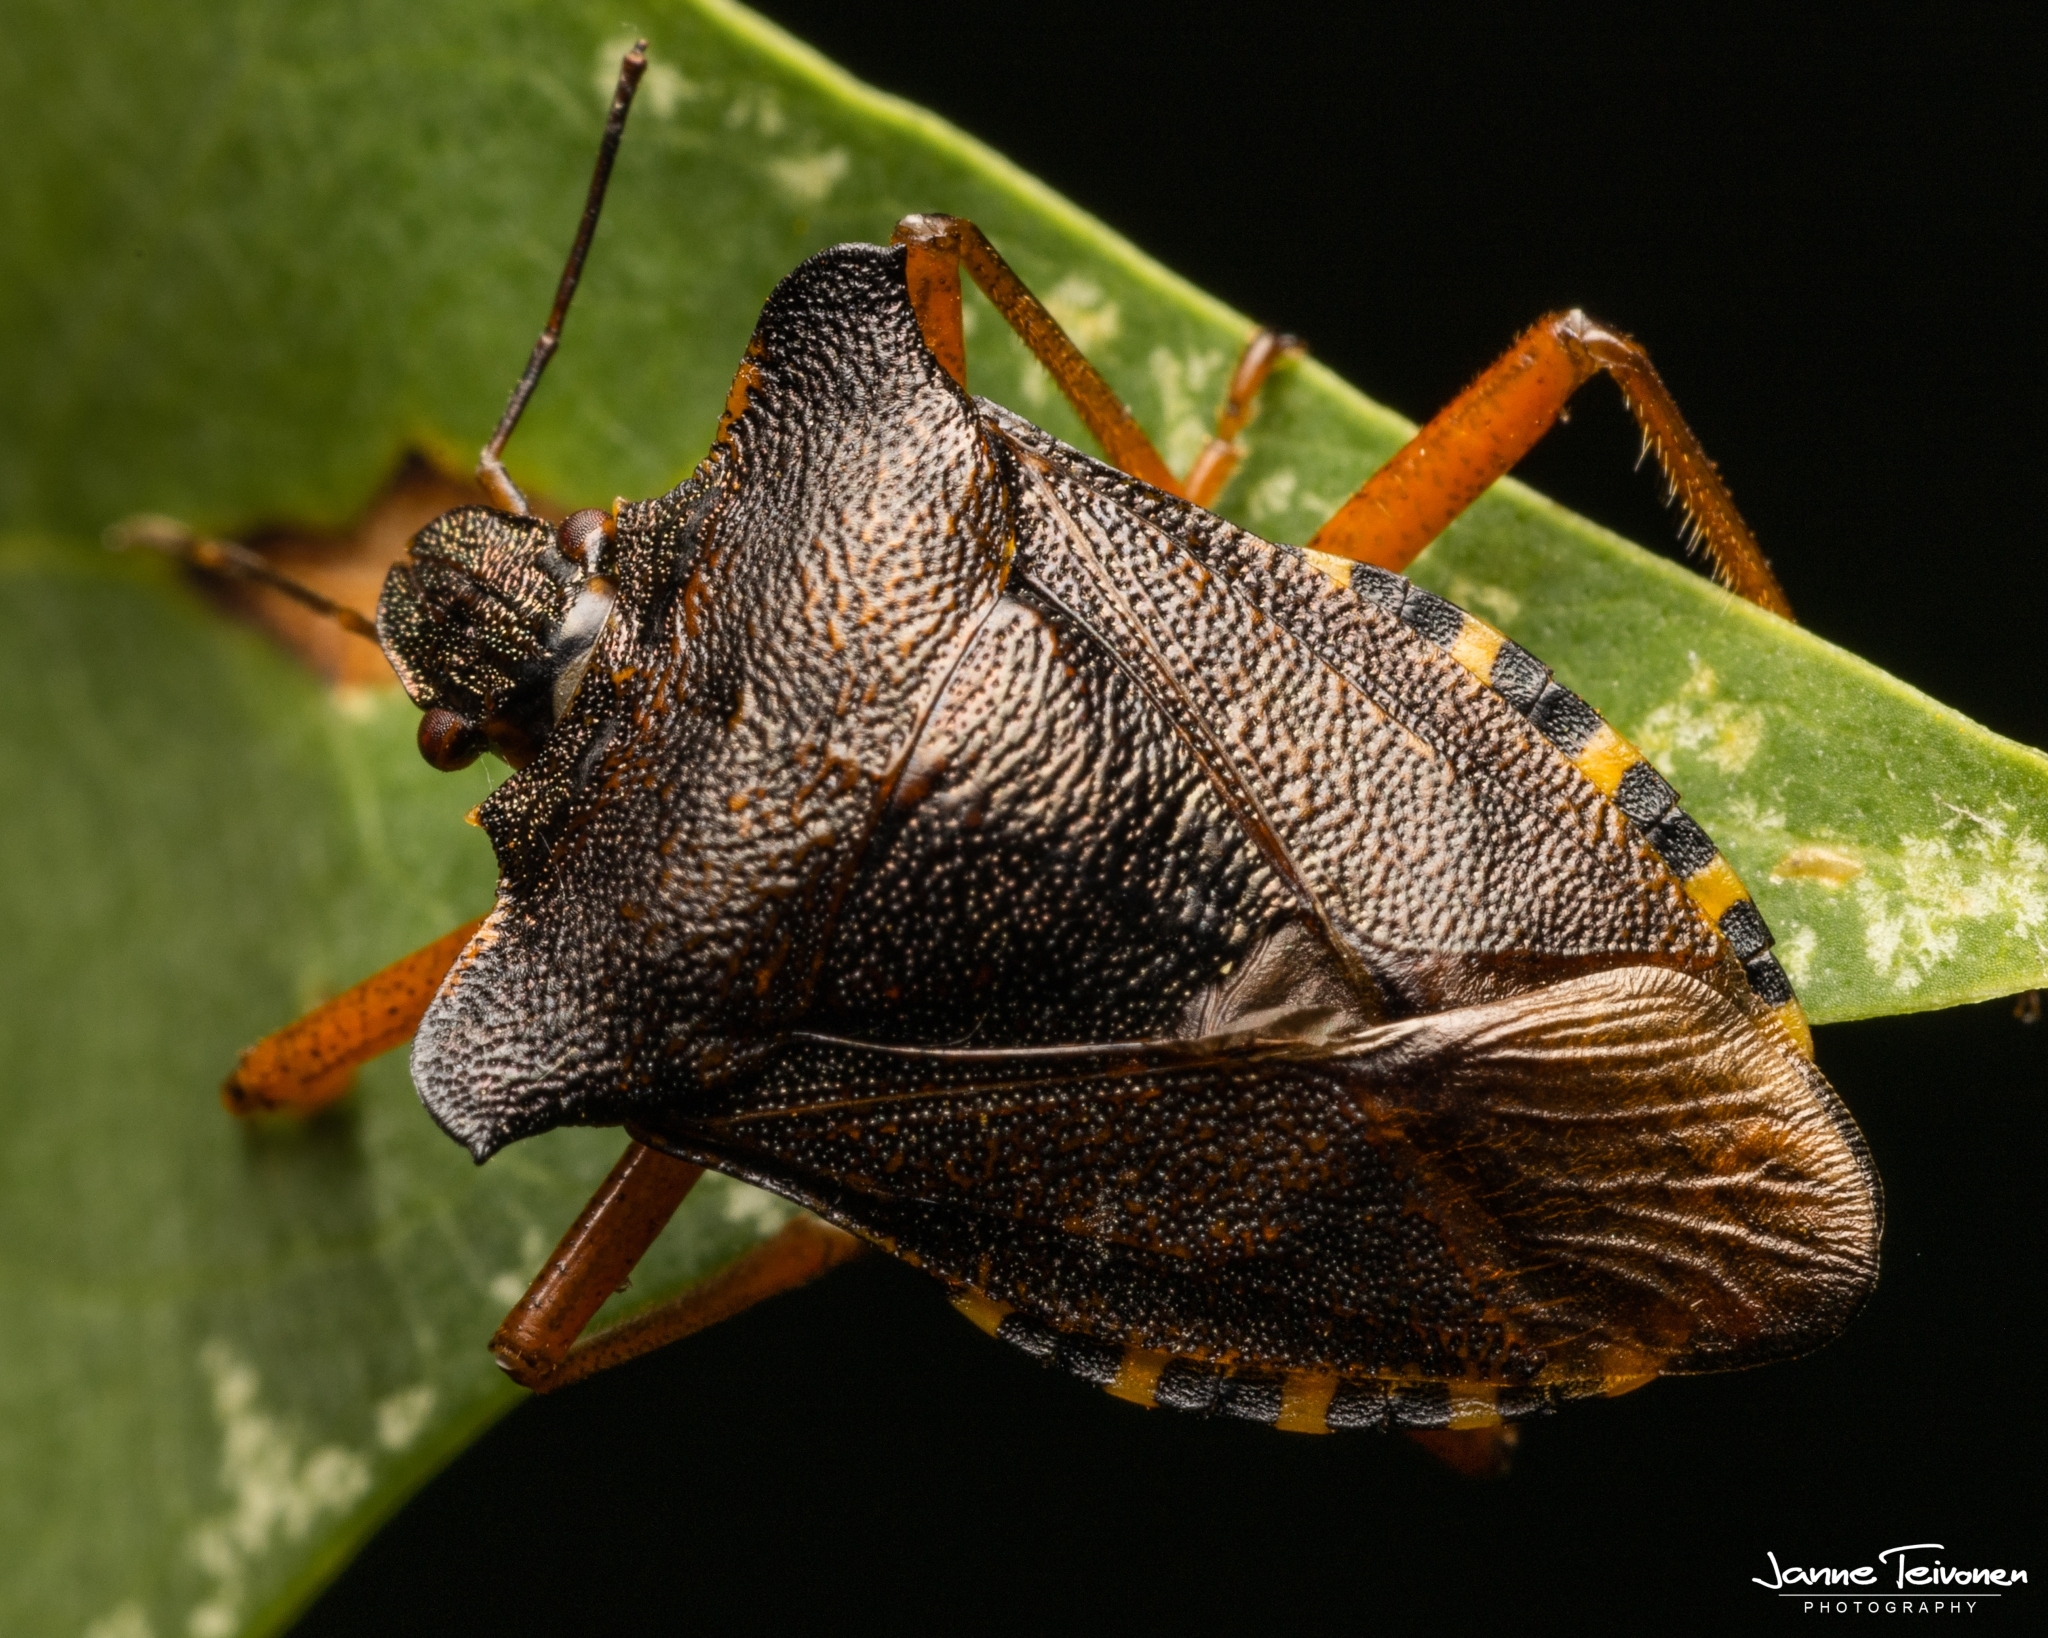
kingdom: Animalia
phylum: Arthropoda
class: Insecta
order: Hemiptera
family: Pentatomidae
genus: Pentatoma
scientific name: Pentatoma rufipes
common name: Forest bug
